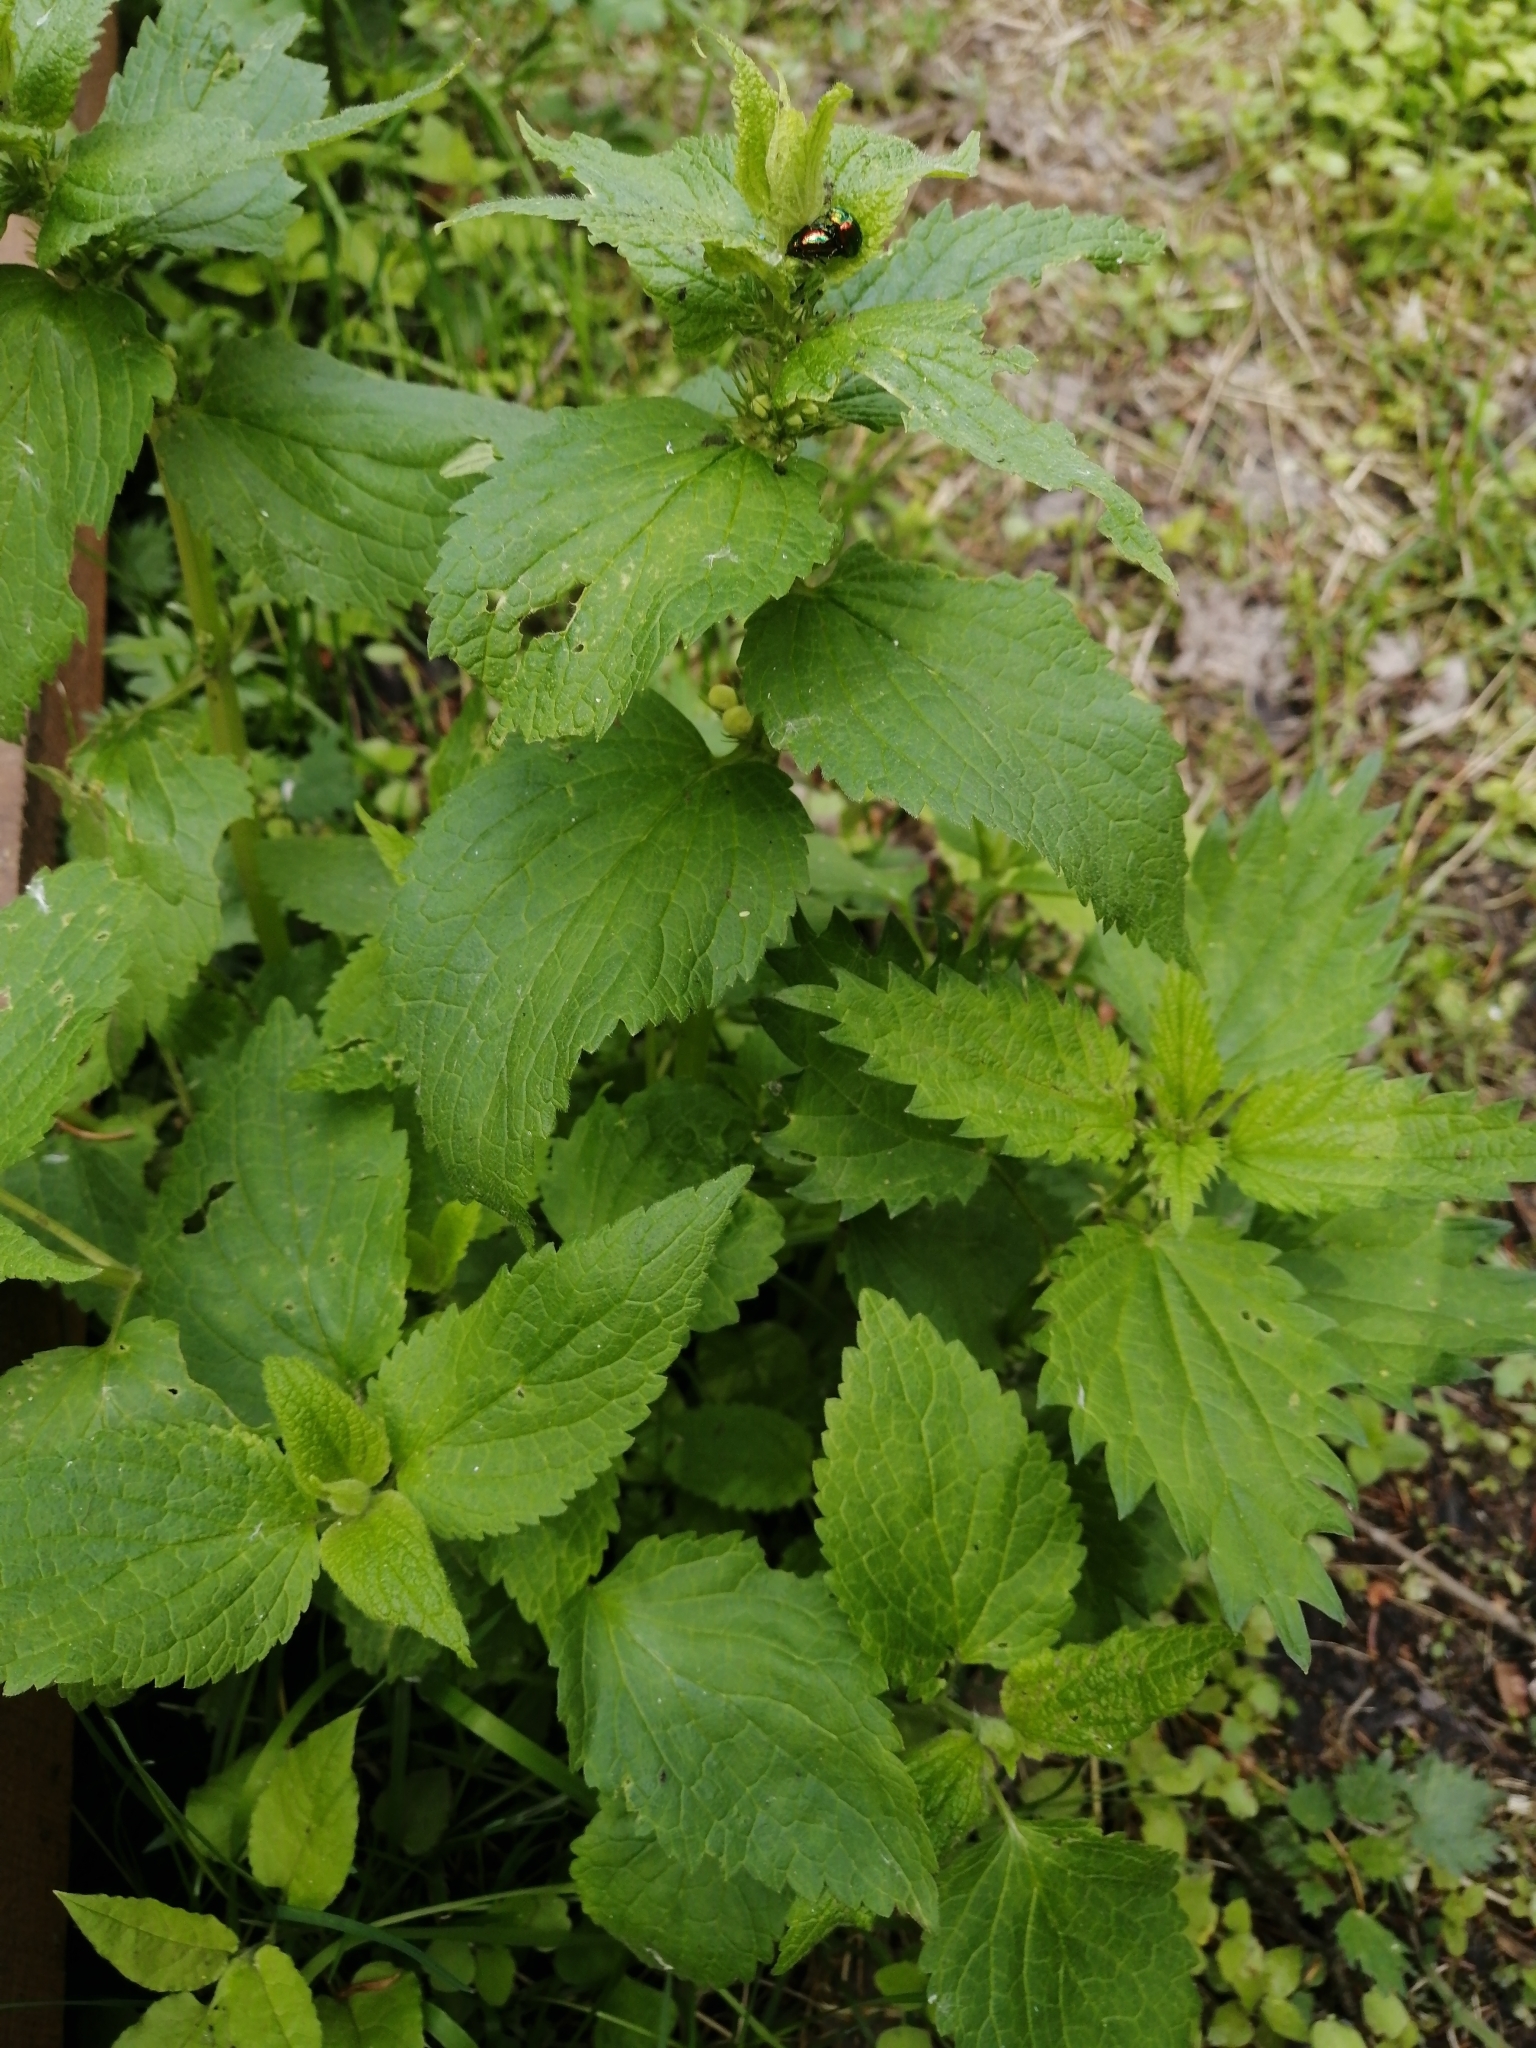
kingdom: Plantae
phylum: Tracheophyta
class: Magnoliopsida
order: Lamiales
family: Lamiaceae
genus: Lamium
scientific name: Lamium album
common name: White dead-nettle
